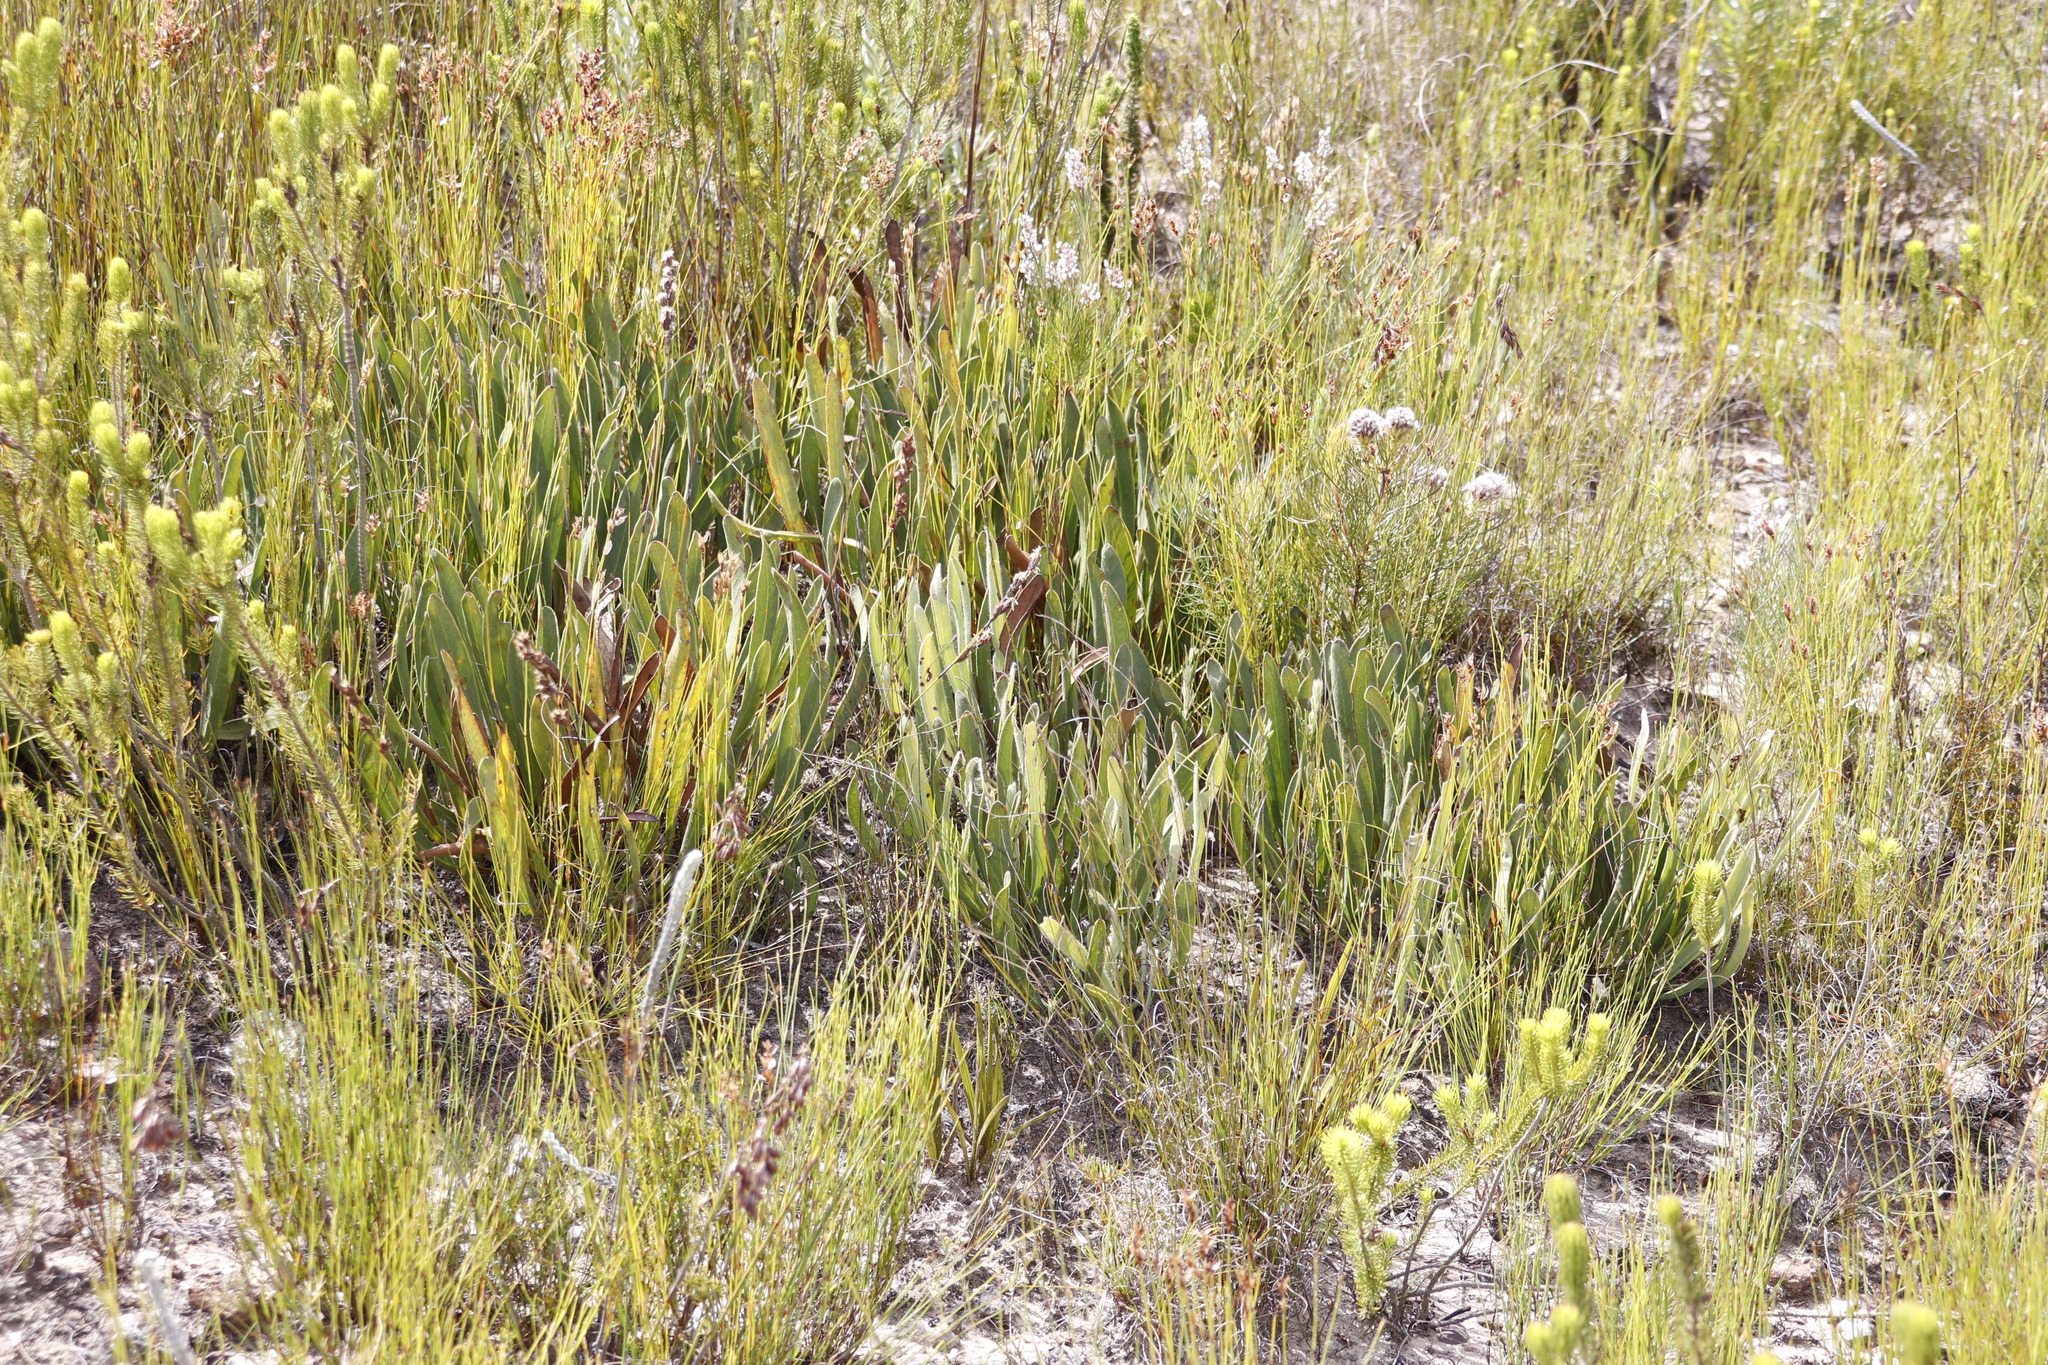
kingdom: Plantae
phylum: Tracheophyta
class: Magnoliopsida
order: Proteales
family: Proteaceae
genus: Serruria
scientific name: Serruria phylicoides
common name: Bearded spiderhead
